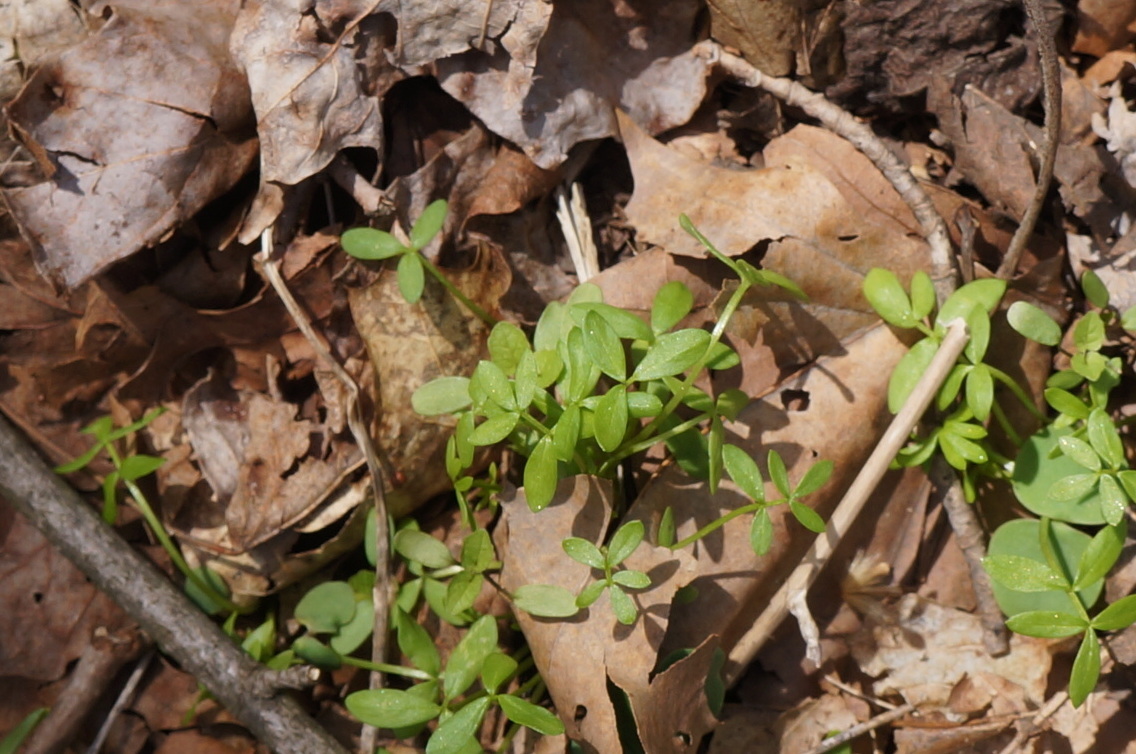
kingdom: Plantae
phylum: Tracheophyta
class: Magnoliopsida
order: Brassicales
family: Limnanthaceae
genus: Floerkea
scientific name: Floerkea proserpinacoides
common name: False mermaid
